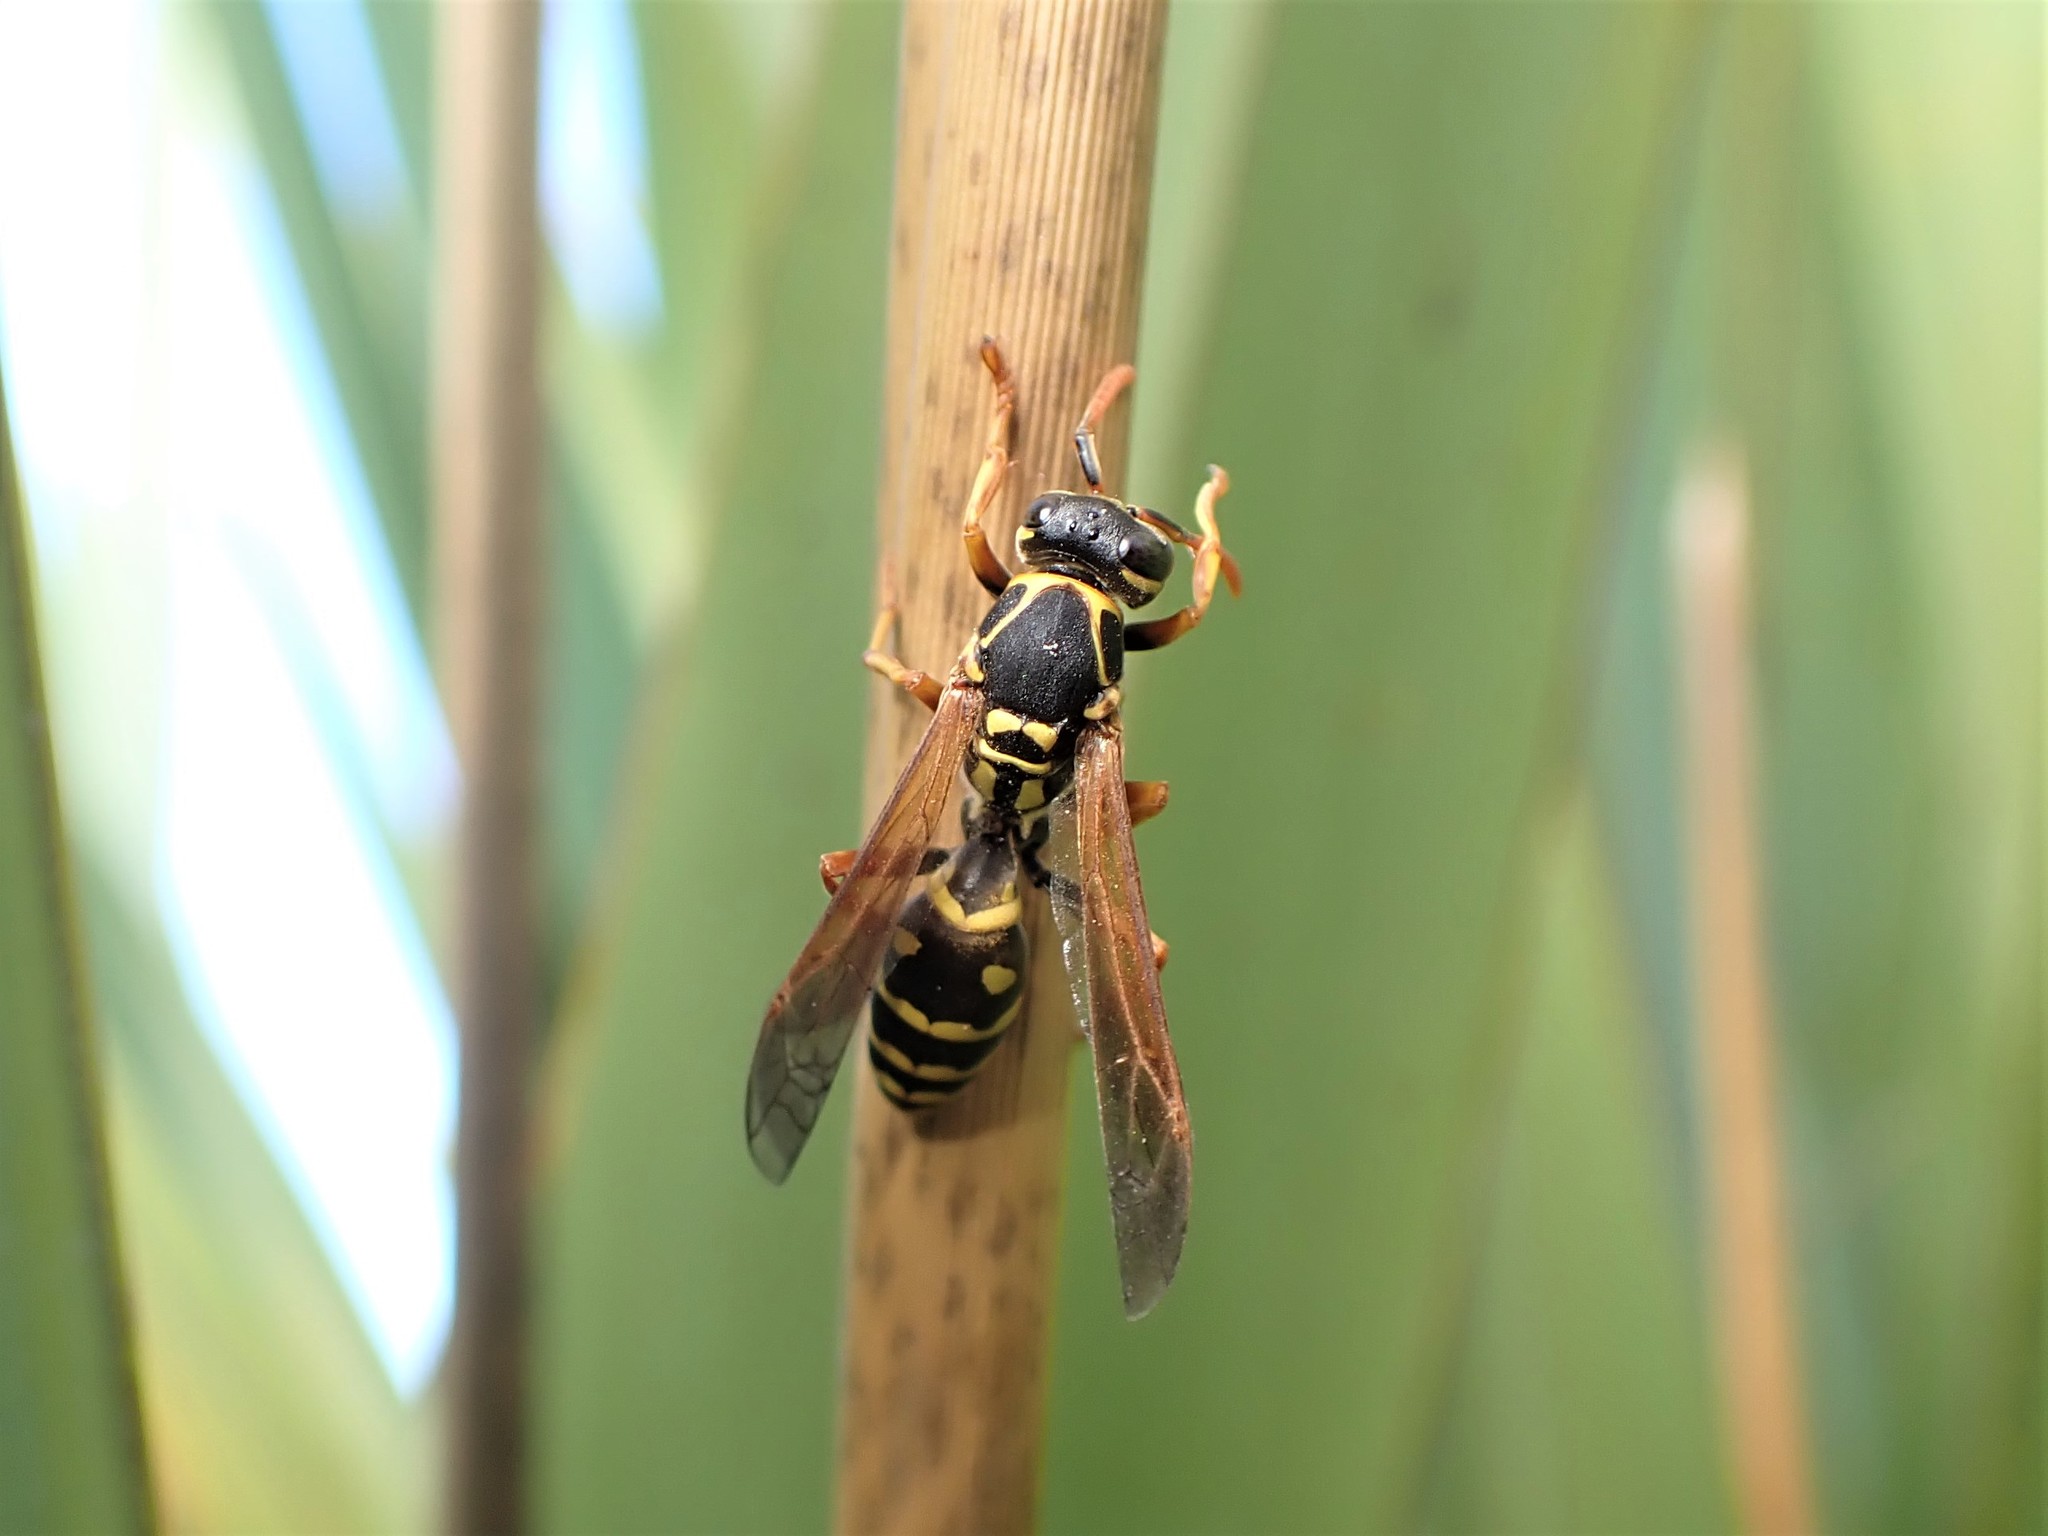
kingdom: Animalia
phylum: Arthropoda
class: Insecta
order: Hymenoptera
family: Eumenidae
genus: Polistes
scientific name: Polistes chinensis
